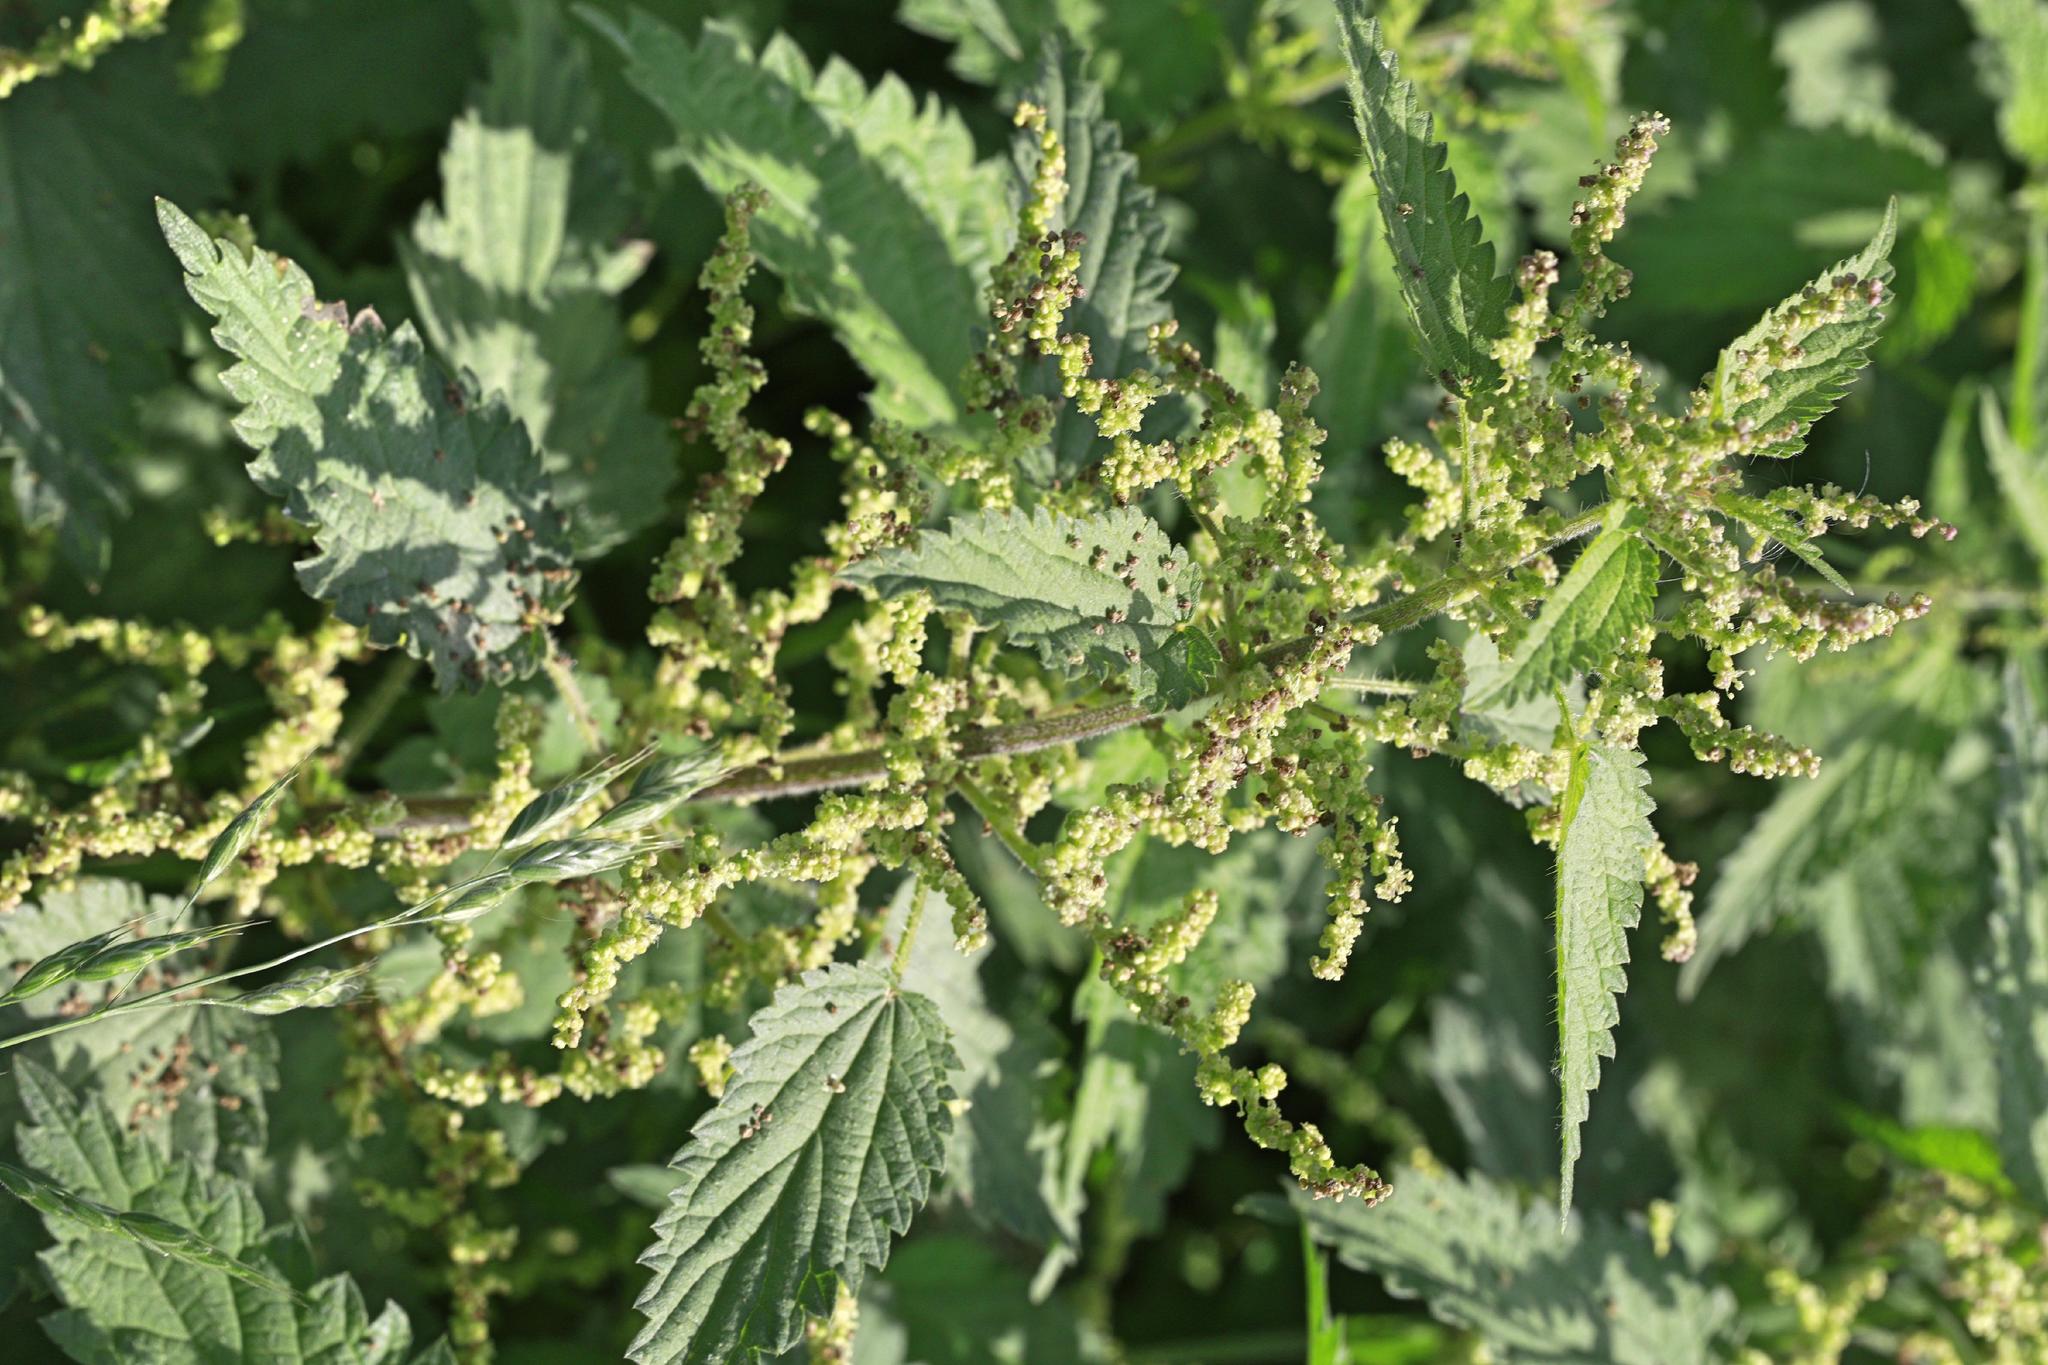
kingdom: Plantae
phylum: Tracheophyta
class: Magnoliopsida
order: Rosales
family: Urticaceae
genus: Urtica
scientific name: Urtica dioica
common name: Common nettle
